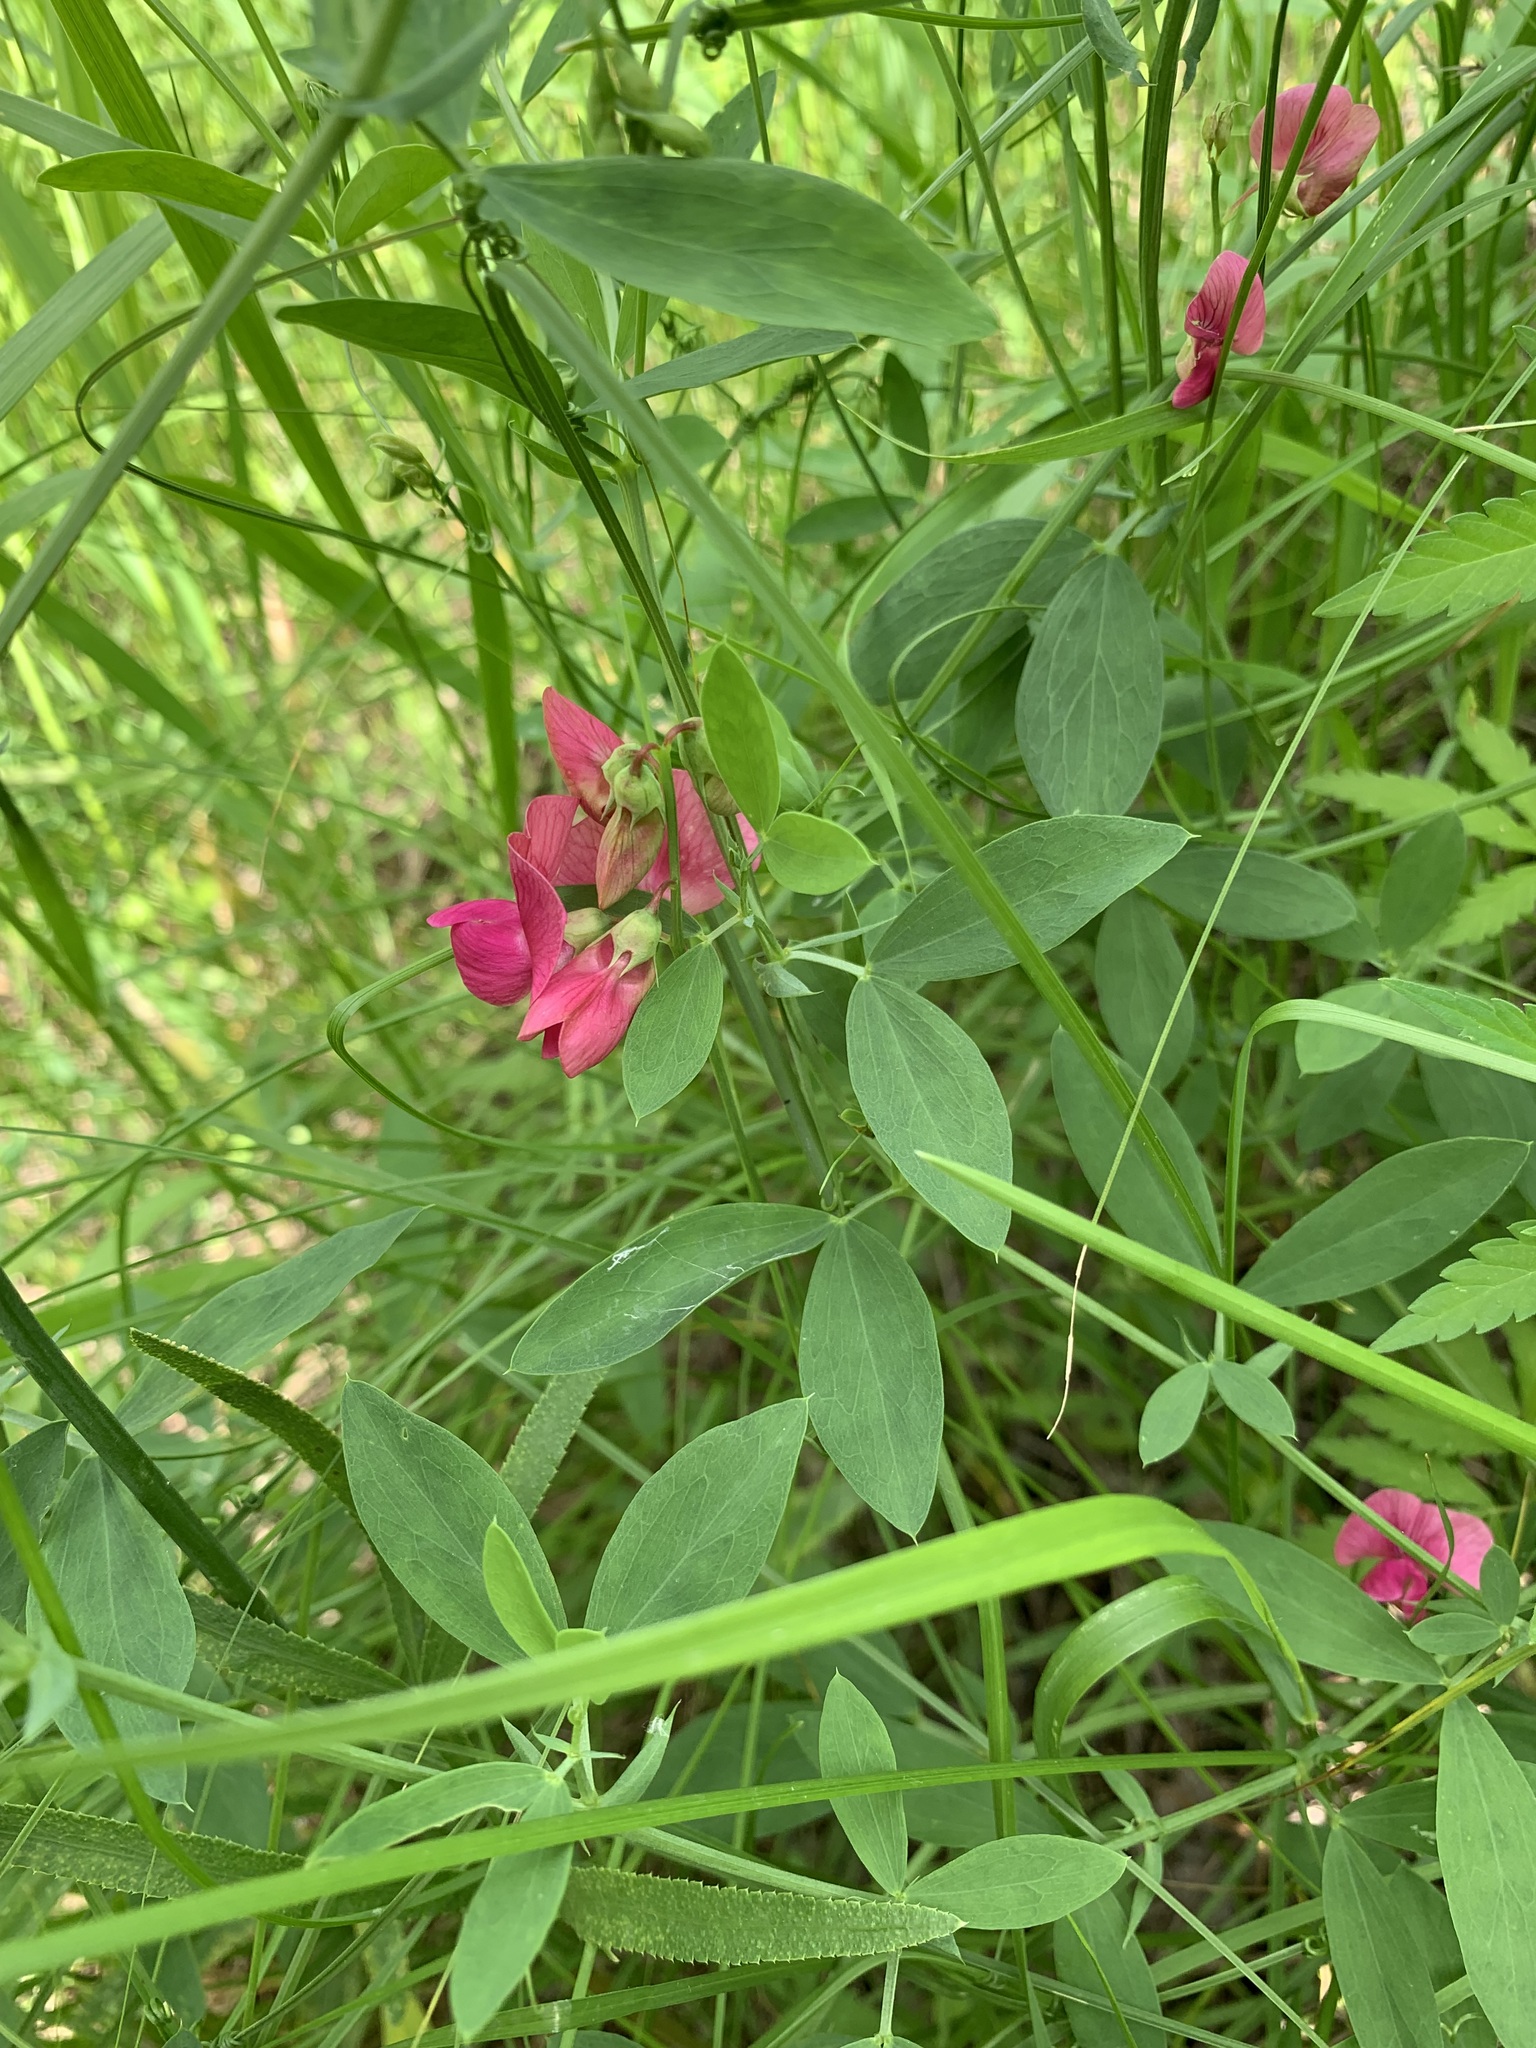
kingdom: Plantae
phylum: Tracheophyta
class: Magnoliopsida
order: Fabales
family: Fabaceae
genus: Lathyrus
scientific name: Lathyrus tuberosus
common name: Tuberous pea
